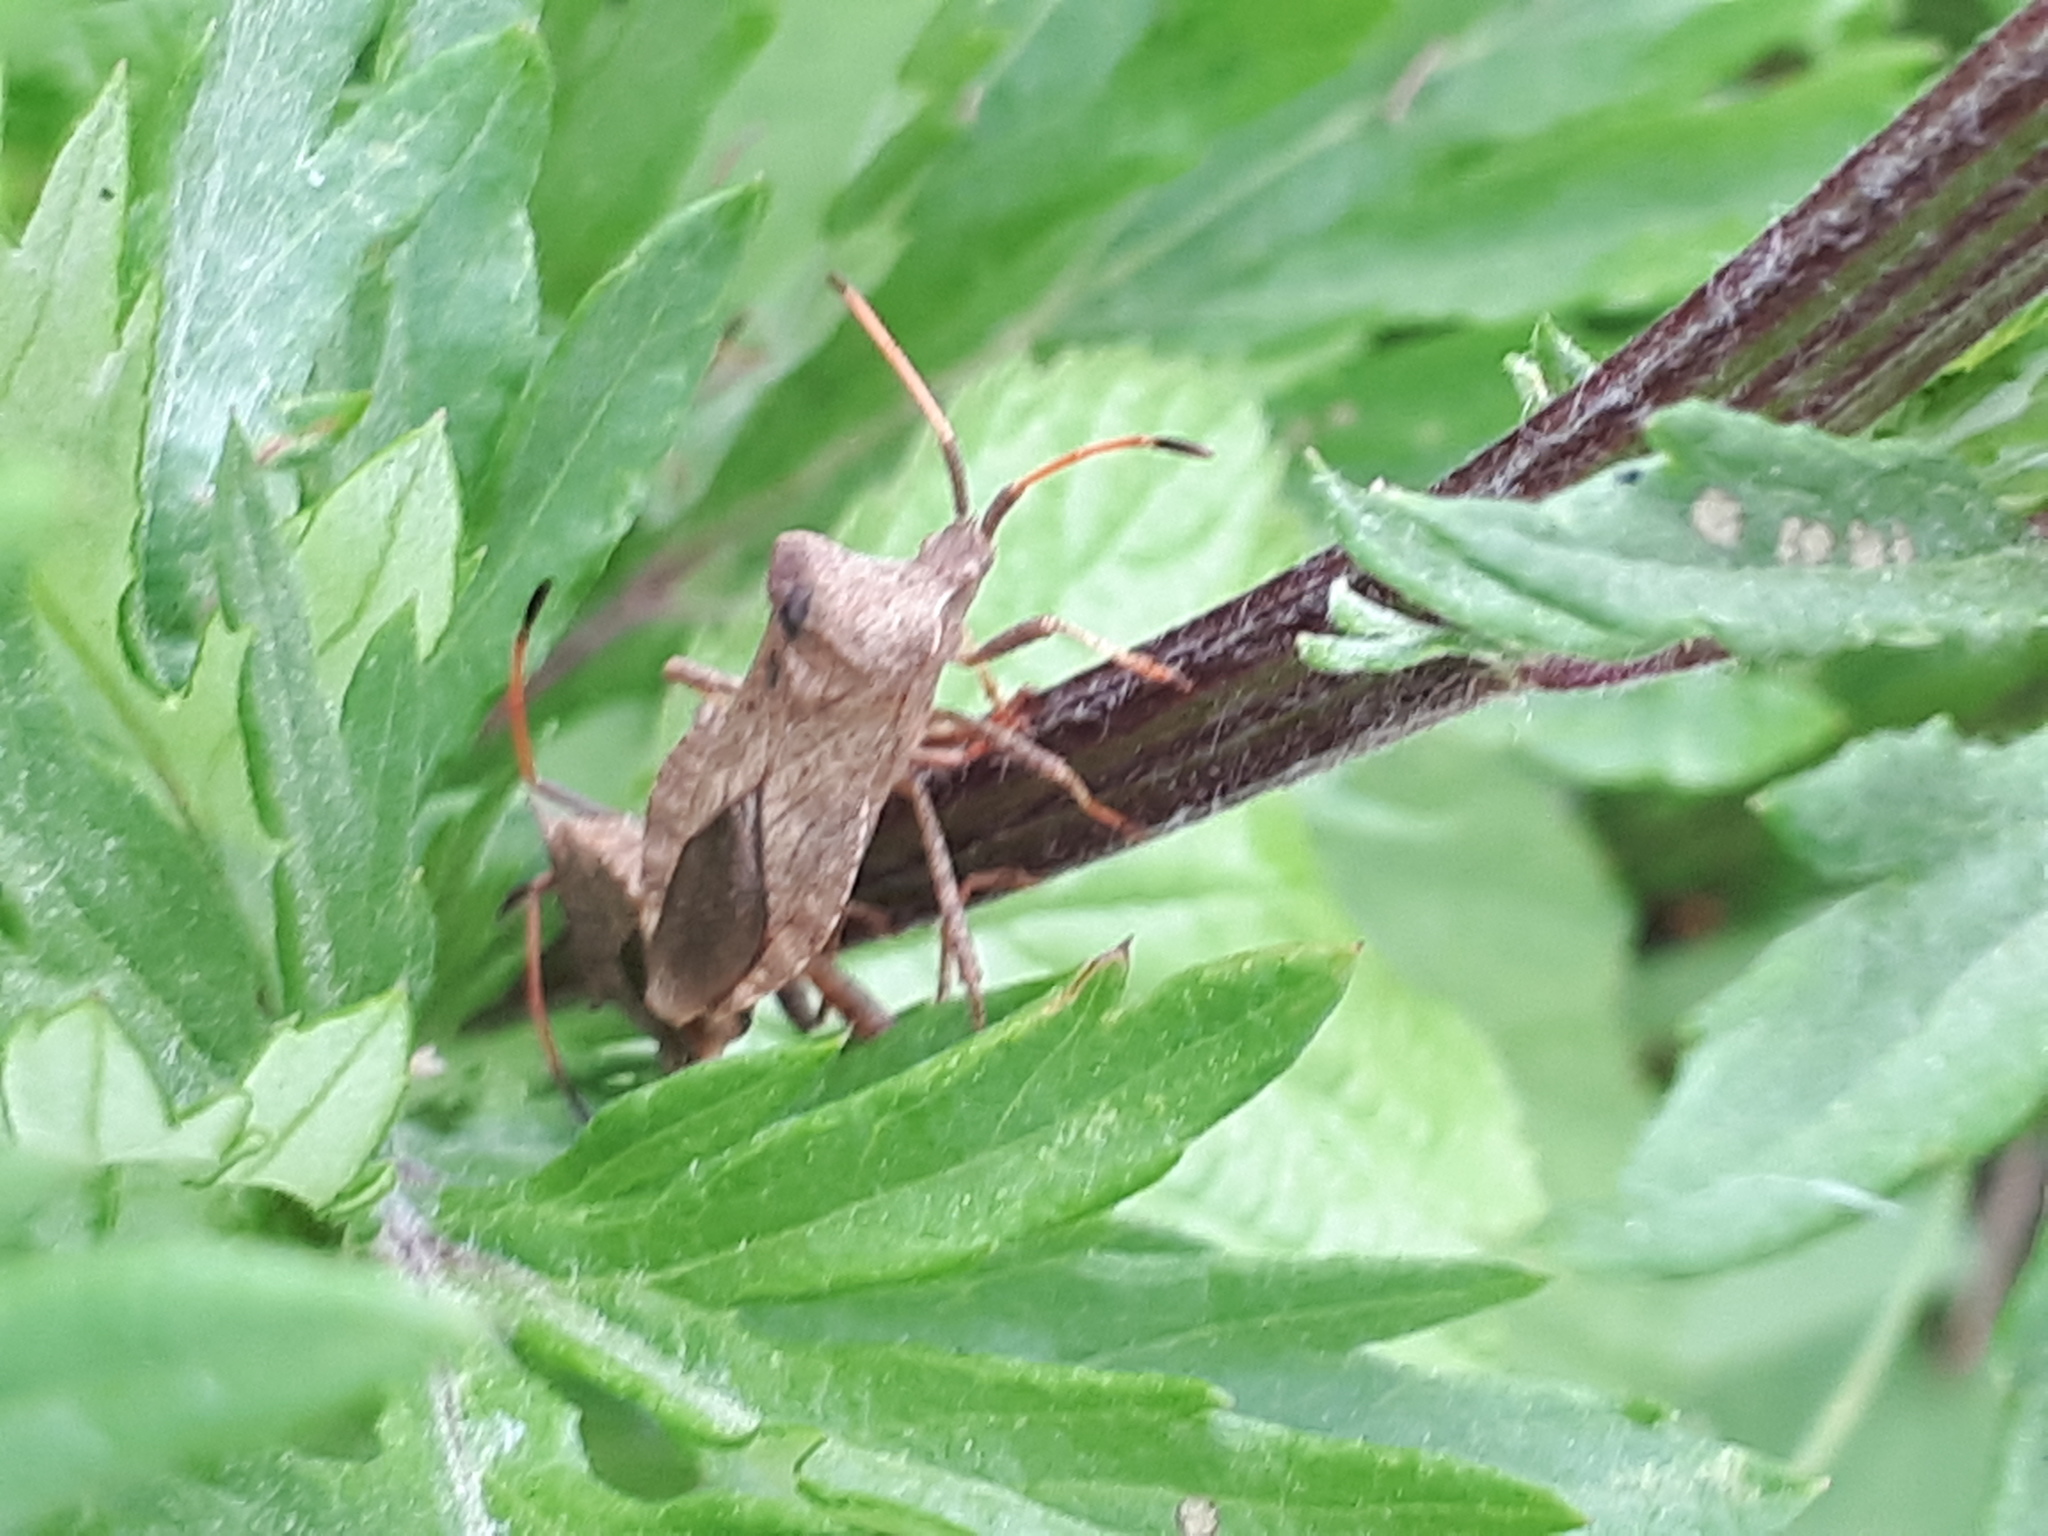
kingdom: Animalia
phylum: Arthropoda
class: Insecta
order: Hemiptera
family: Coreidae
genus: Coreus
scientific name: Coreus marginatus
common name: Dock bug
